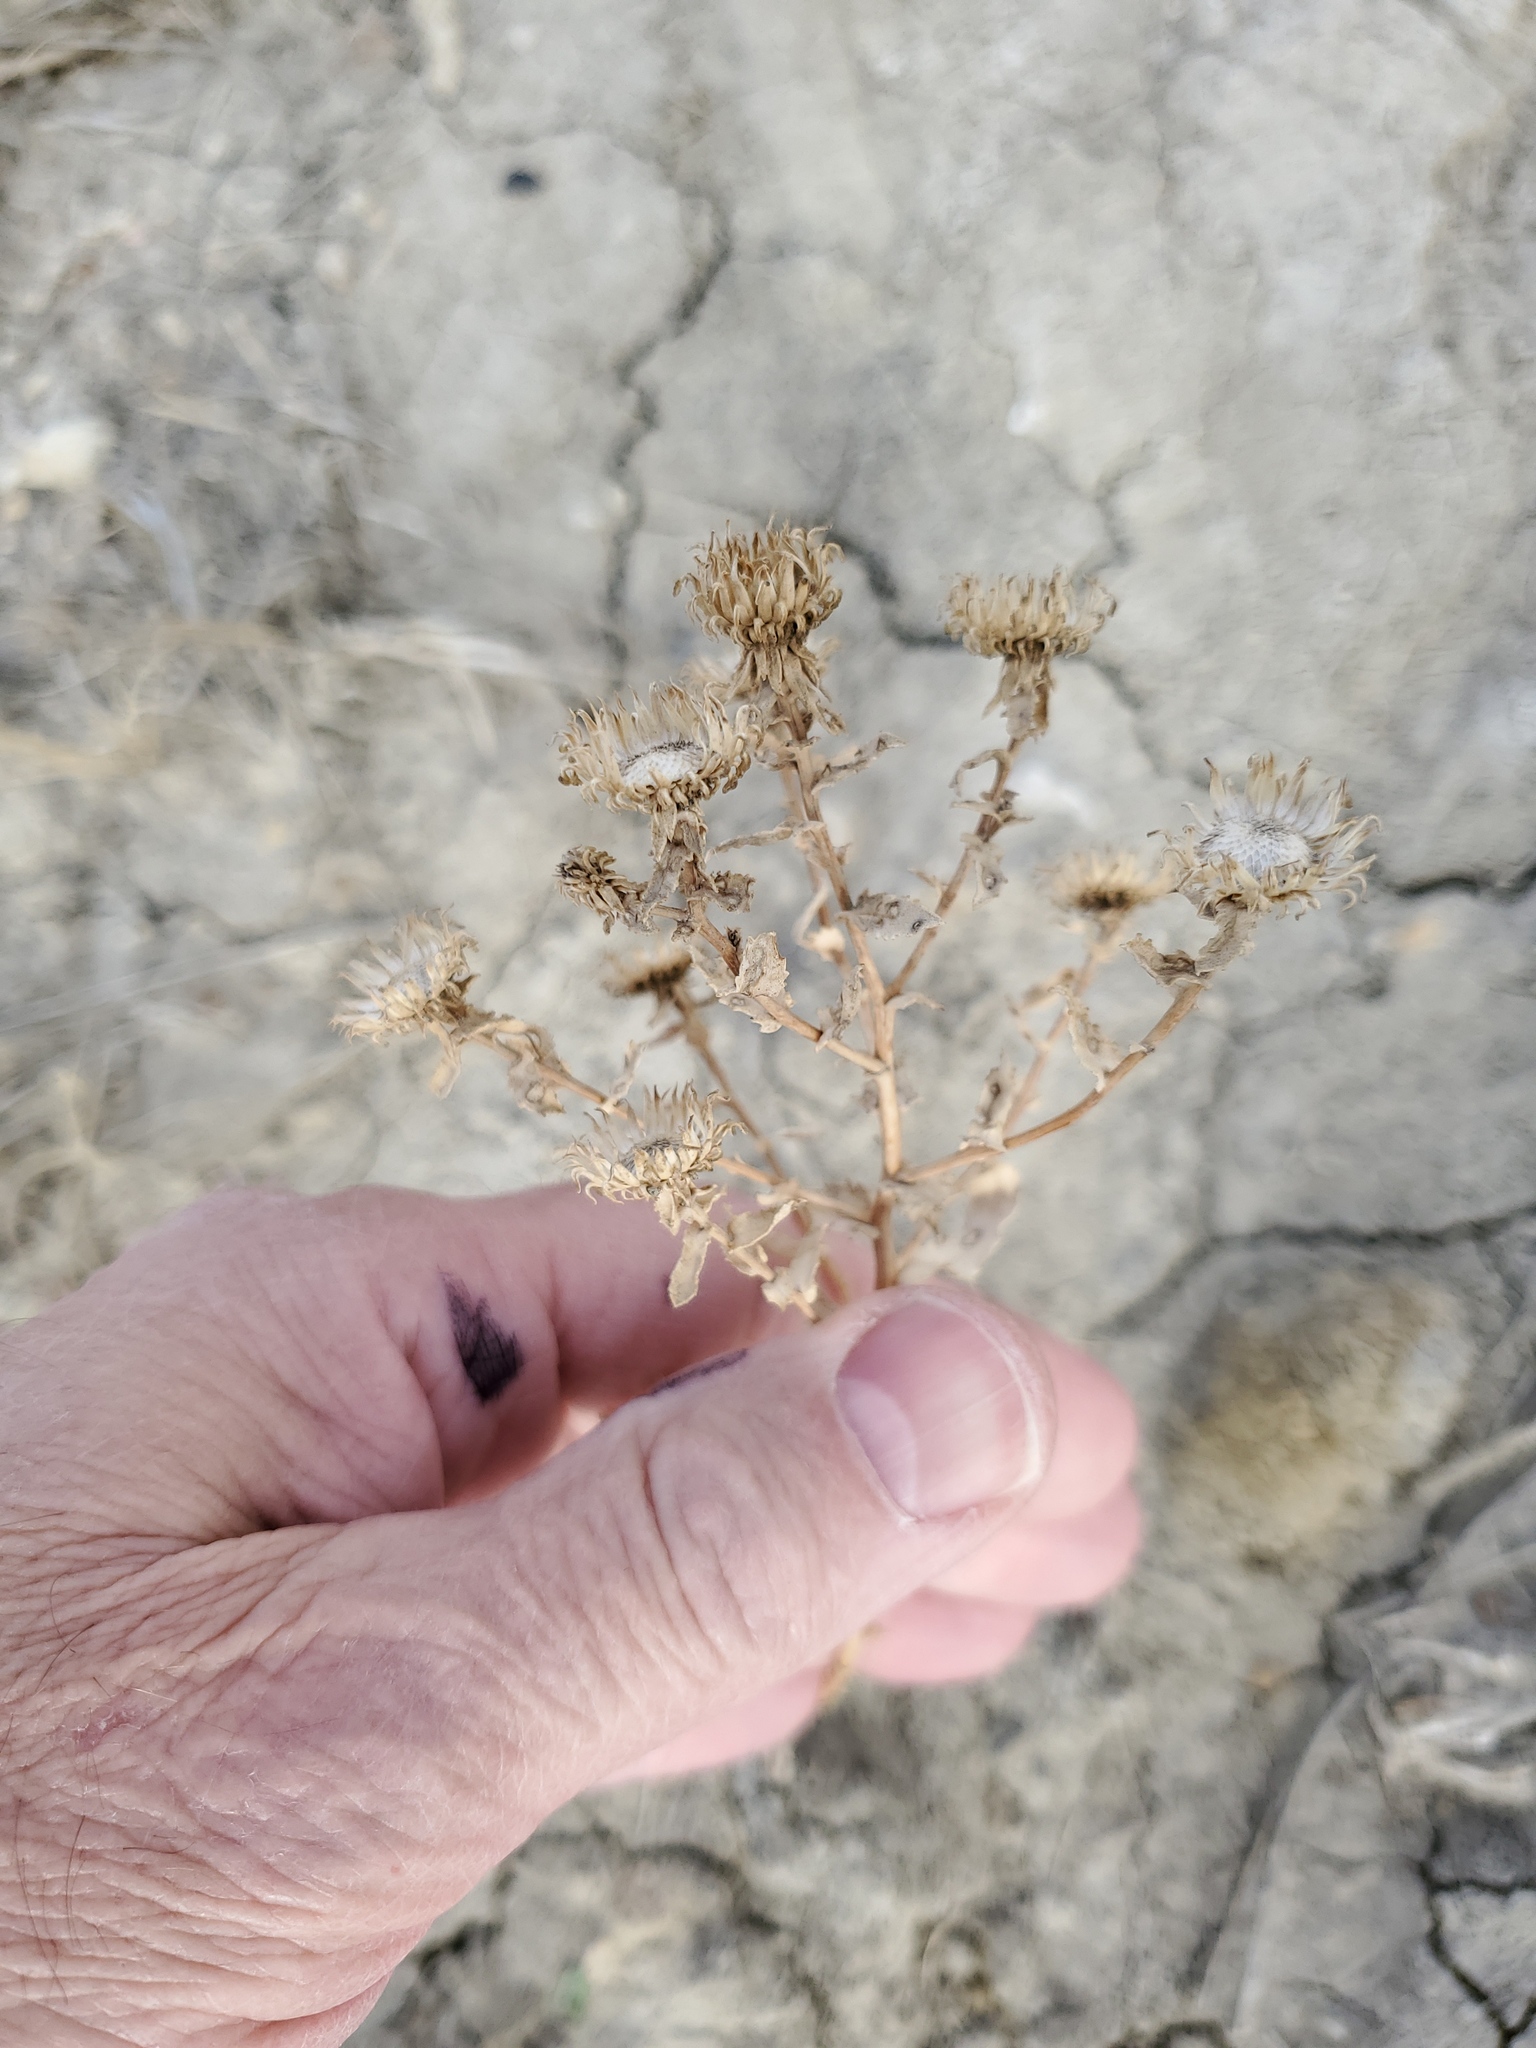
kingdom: Plantae
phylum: Tracheophyta
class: Magnoliopsida
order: Asterales
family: Asteraceae
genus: Grindelia
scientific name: Grindelia squarrosa
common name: Curly-cup gumweed
